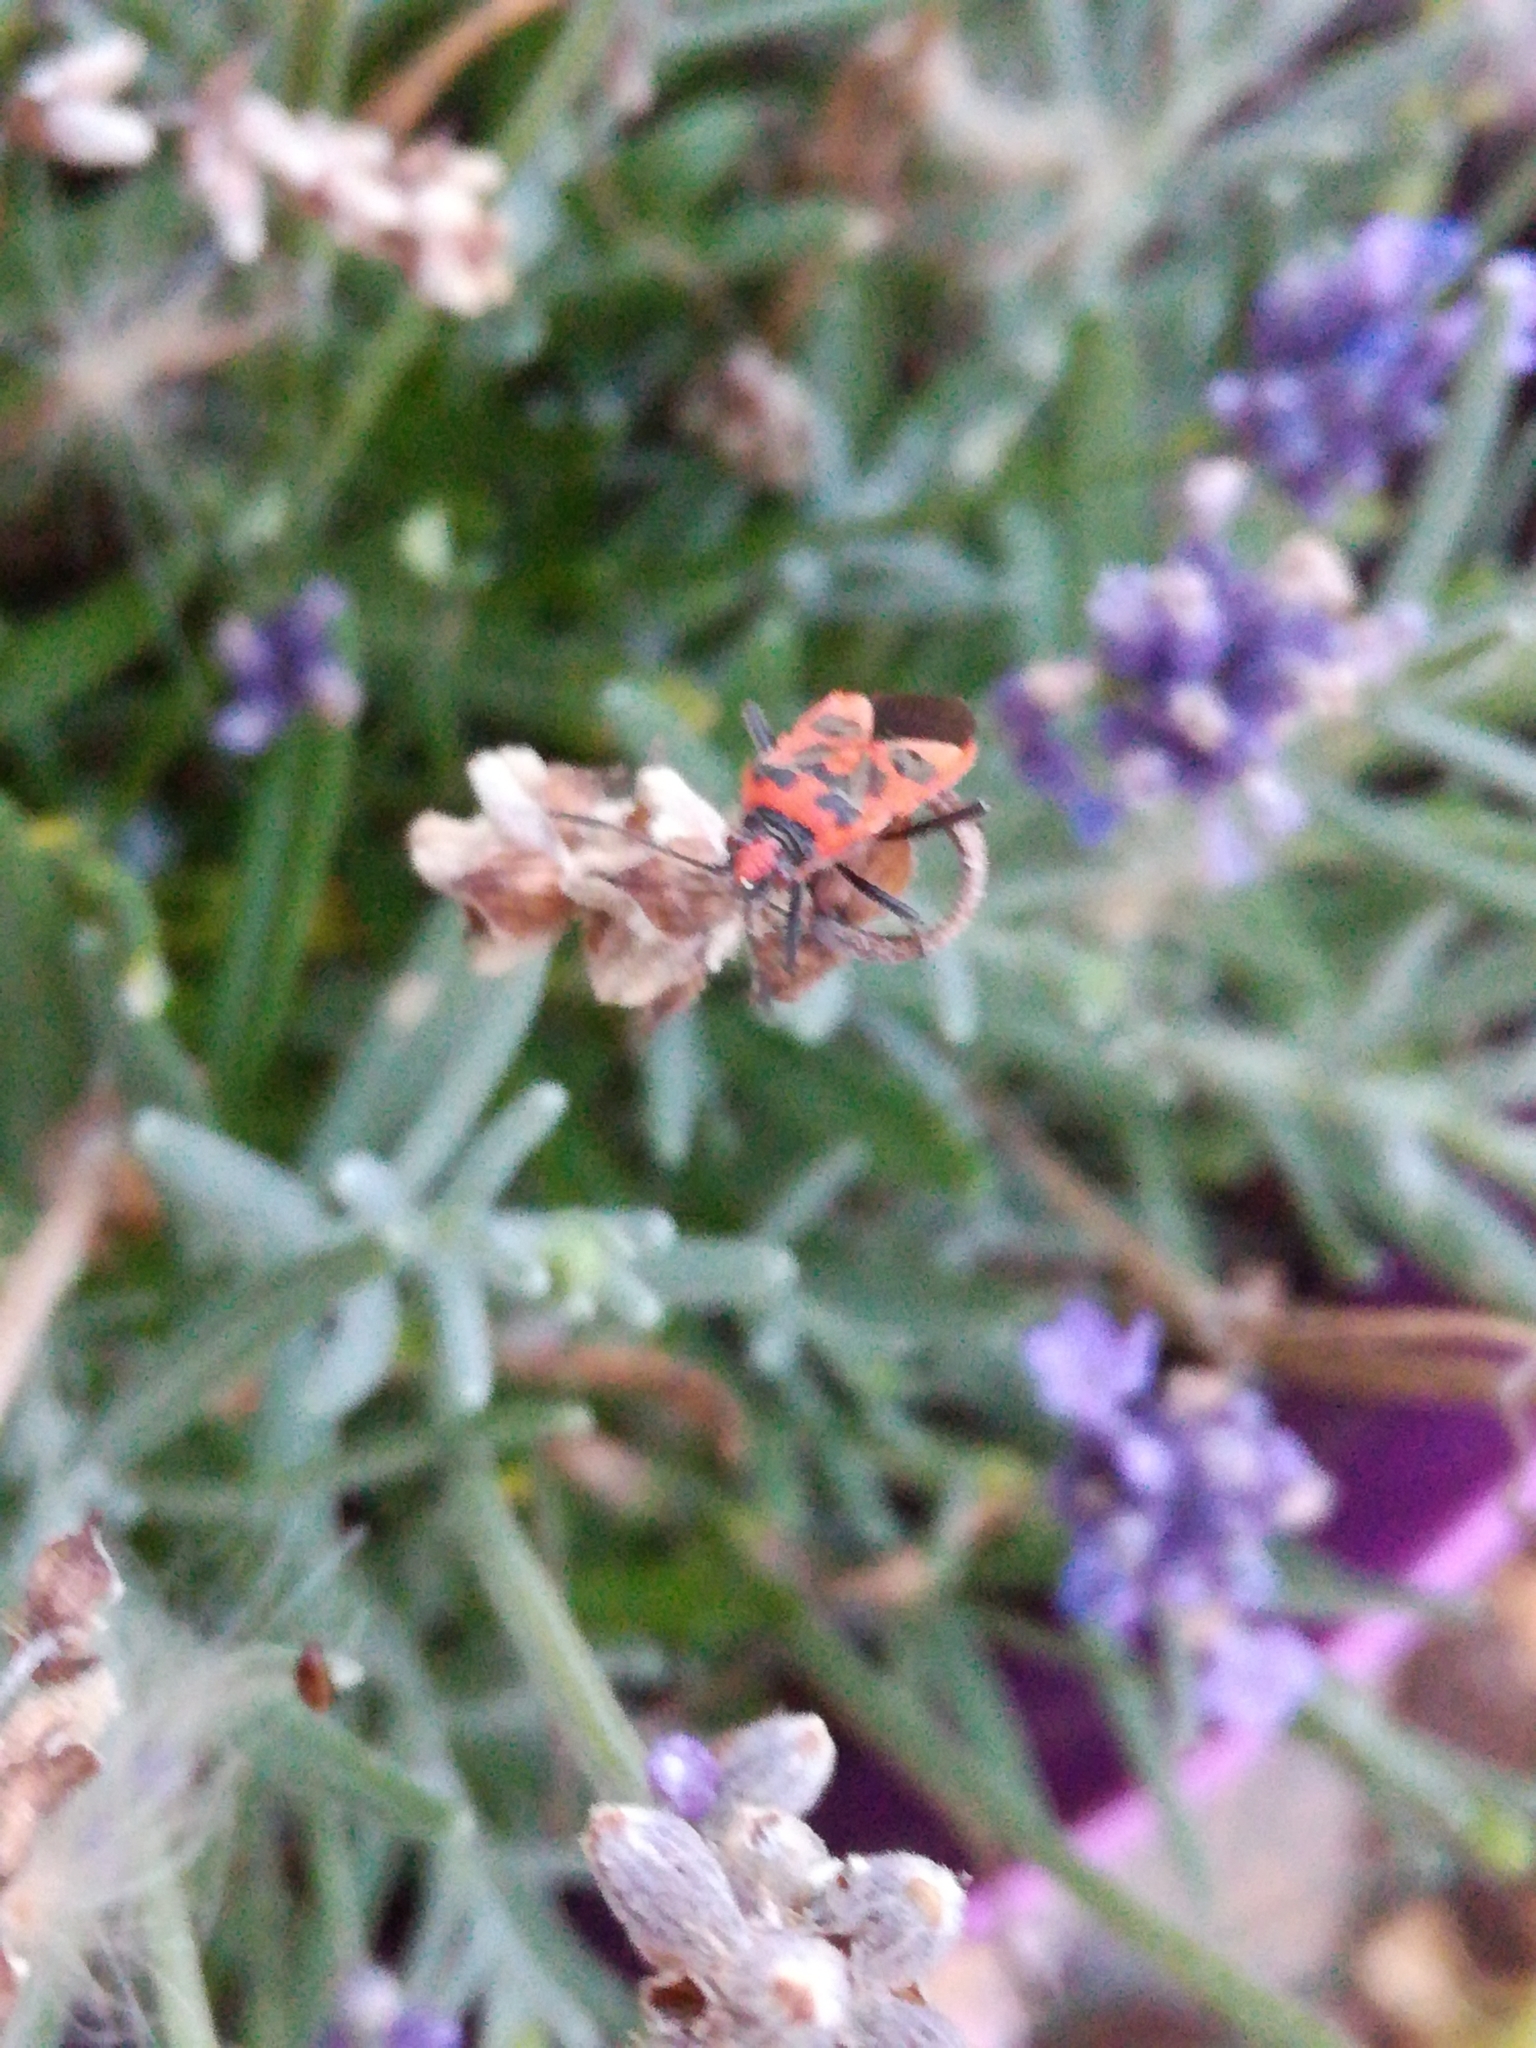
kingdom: Animalia
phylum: Arthropoda
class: Insecta
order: Hemiptera
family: Rhopalidae
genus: Corizus
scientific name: Corizus hyoscyami
